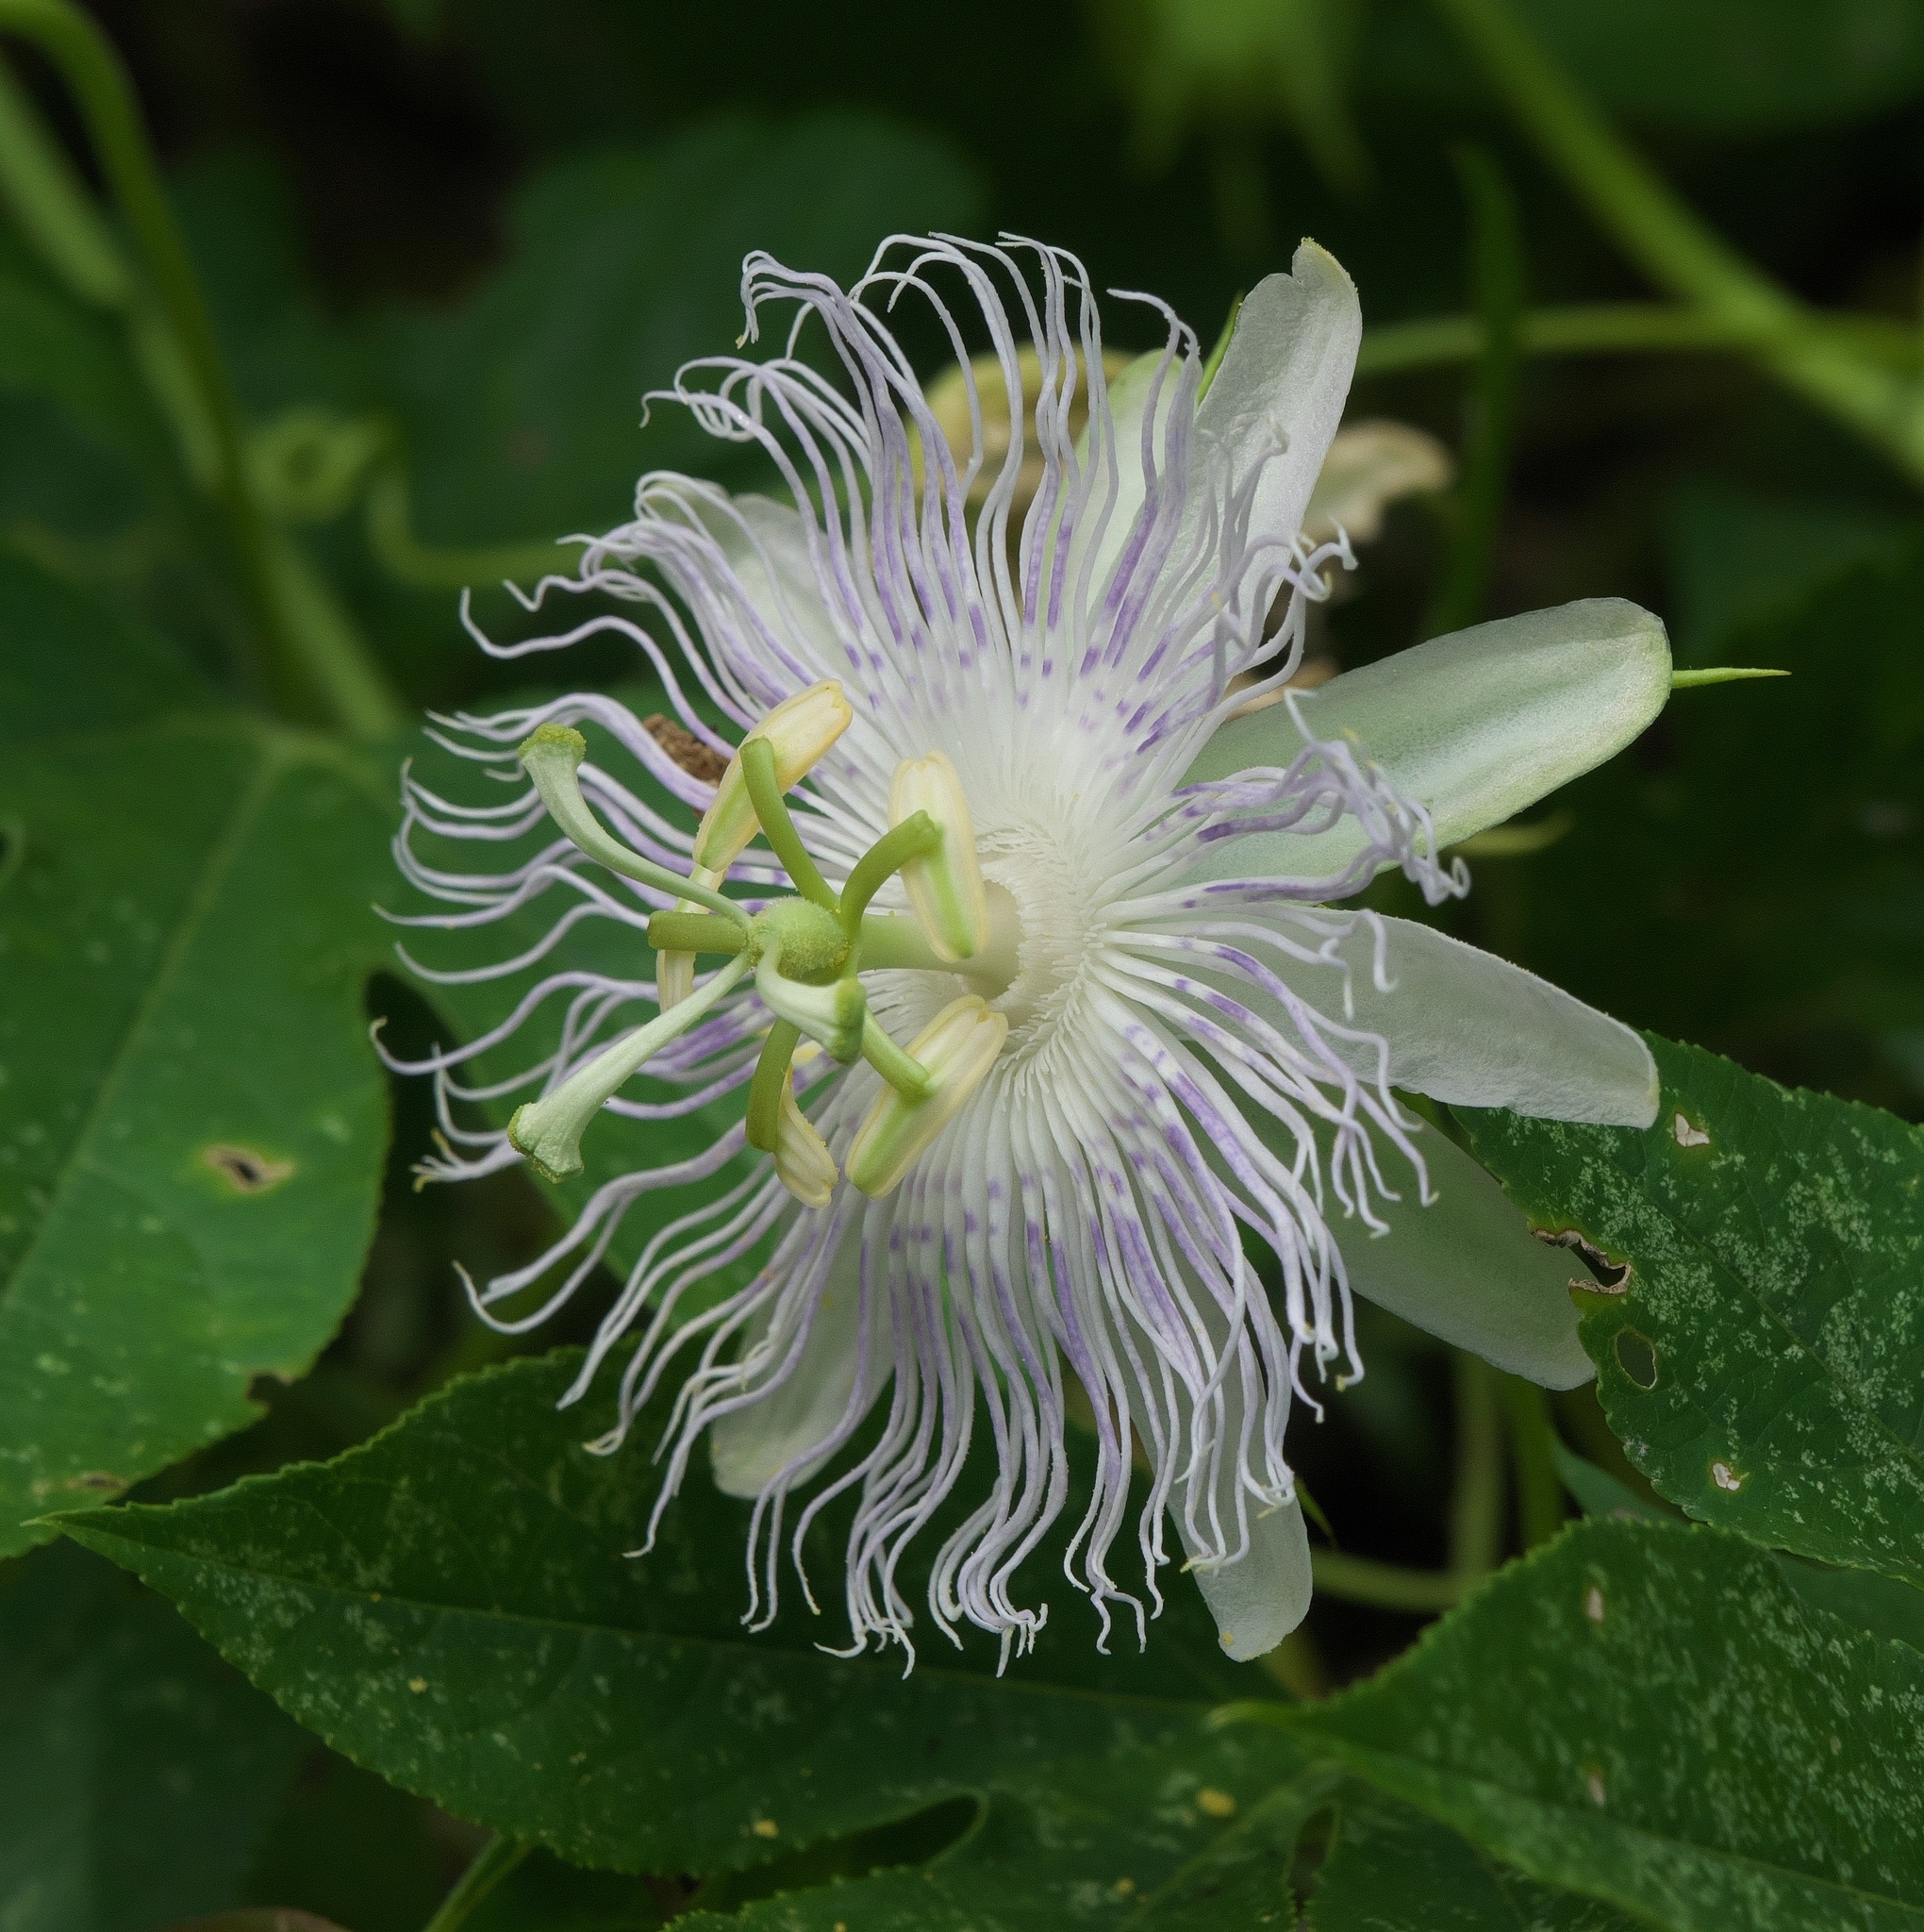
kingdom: Plantae
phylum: Tracheophyta
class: Magnoliopsida
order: Malpighiales
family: Passifloraceae
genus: Passiflora
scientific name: Passiflora incarnata
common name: Apricot-vine
